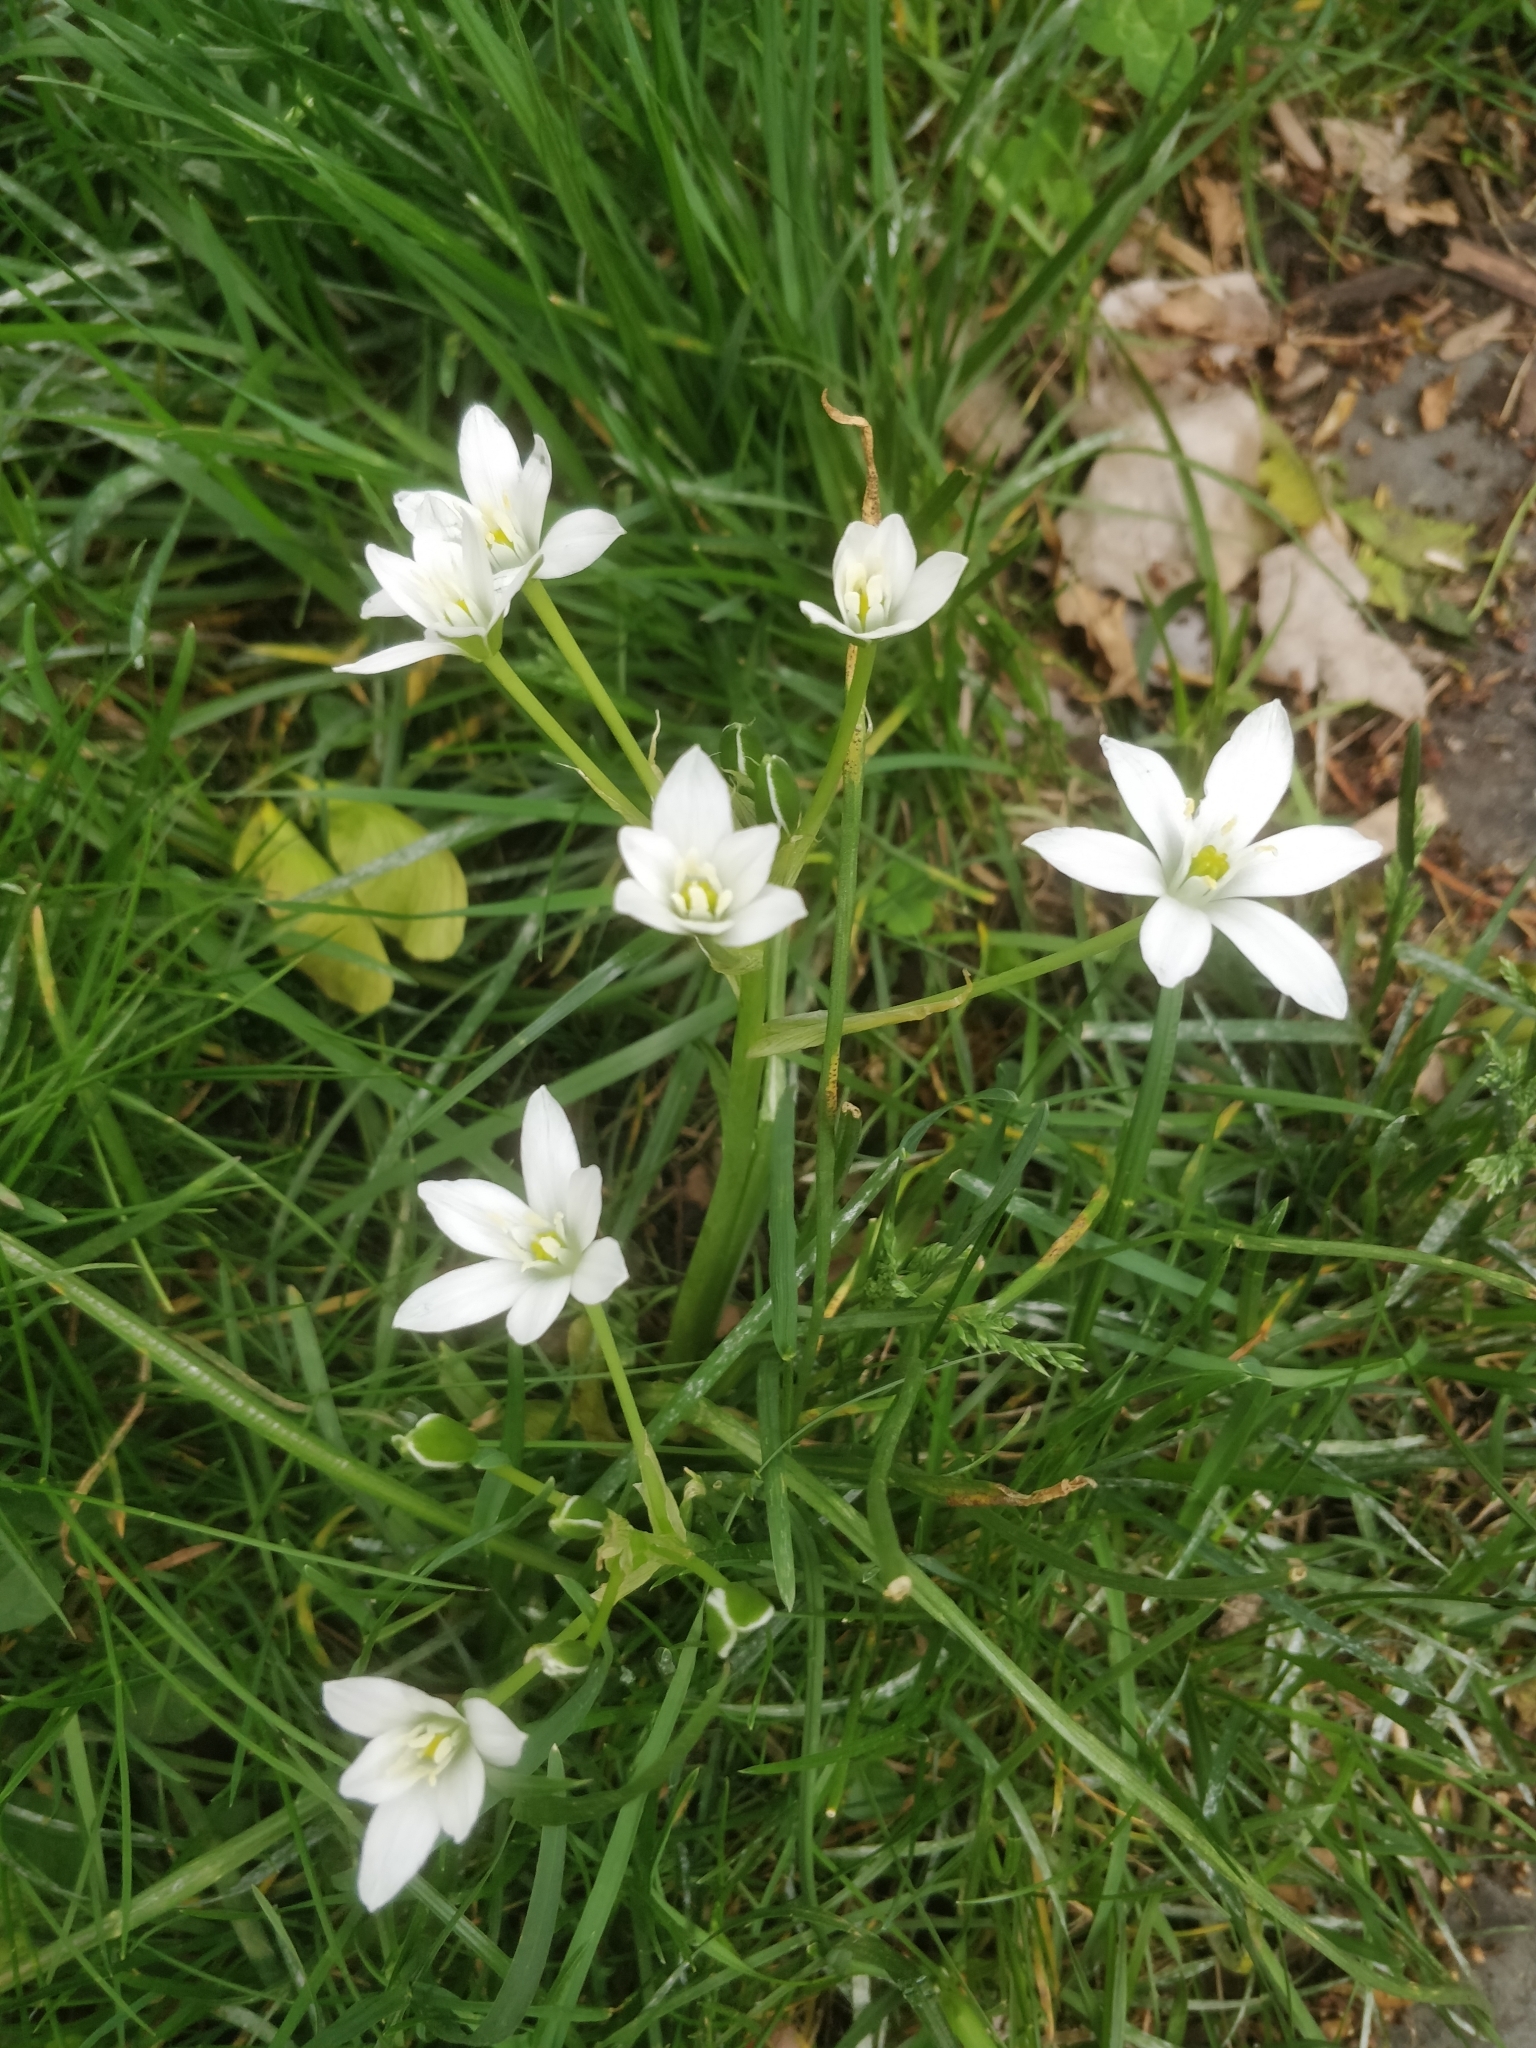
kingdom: Plantae
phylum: Tracheophyta
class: Liliopsida
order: Asparagales
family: Asparagaceae
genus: Ornithogalum
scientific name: Ornithogalum umbellatum
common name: Garden star-of-bethlehem
